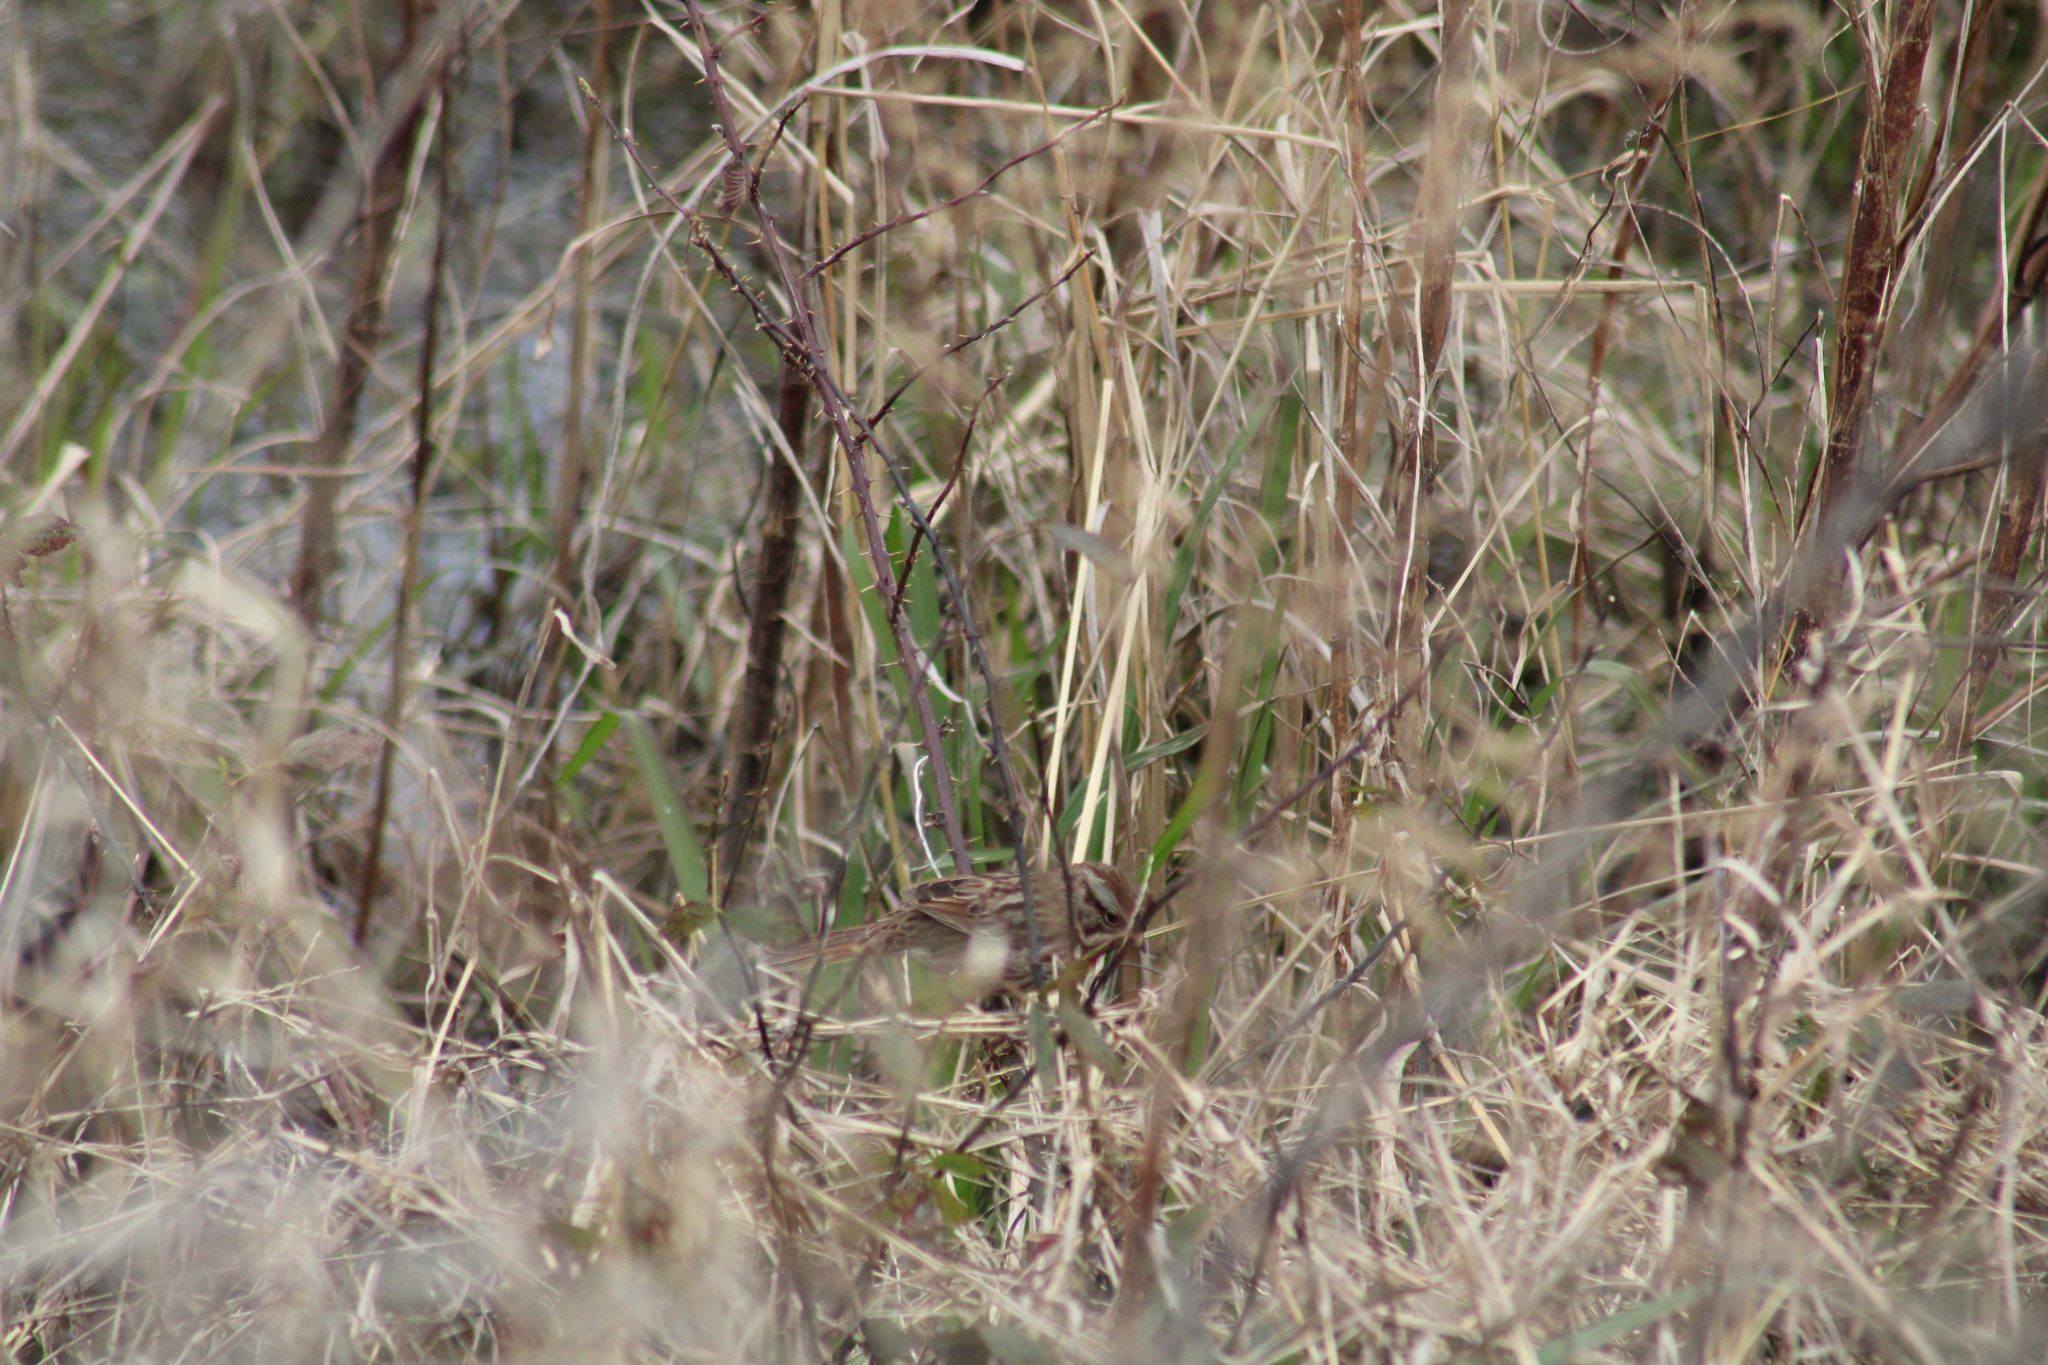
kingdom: Animalia
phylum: Chordata
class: Aves
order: Passeriformes
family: Passerellidae
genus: Melospiza
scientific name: Melospiza melodia
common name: Song sparrow
